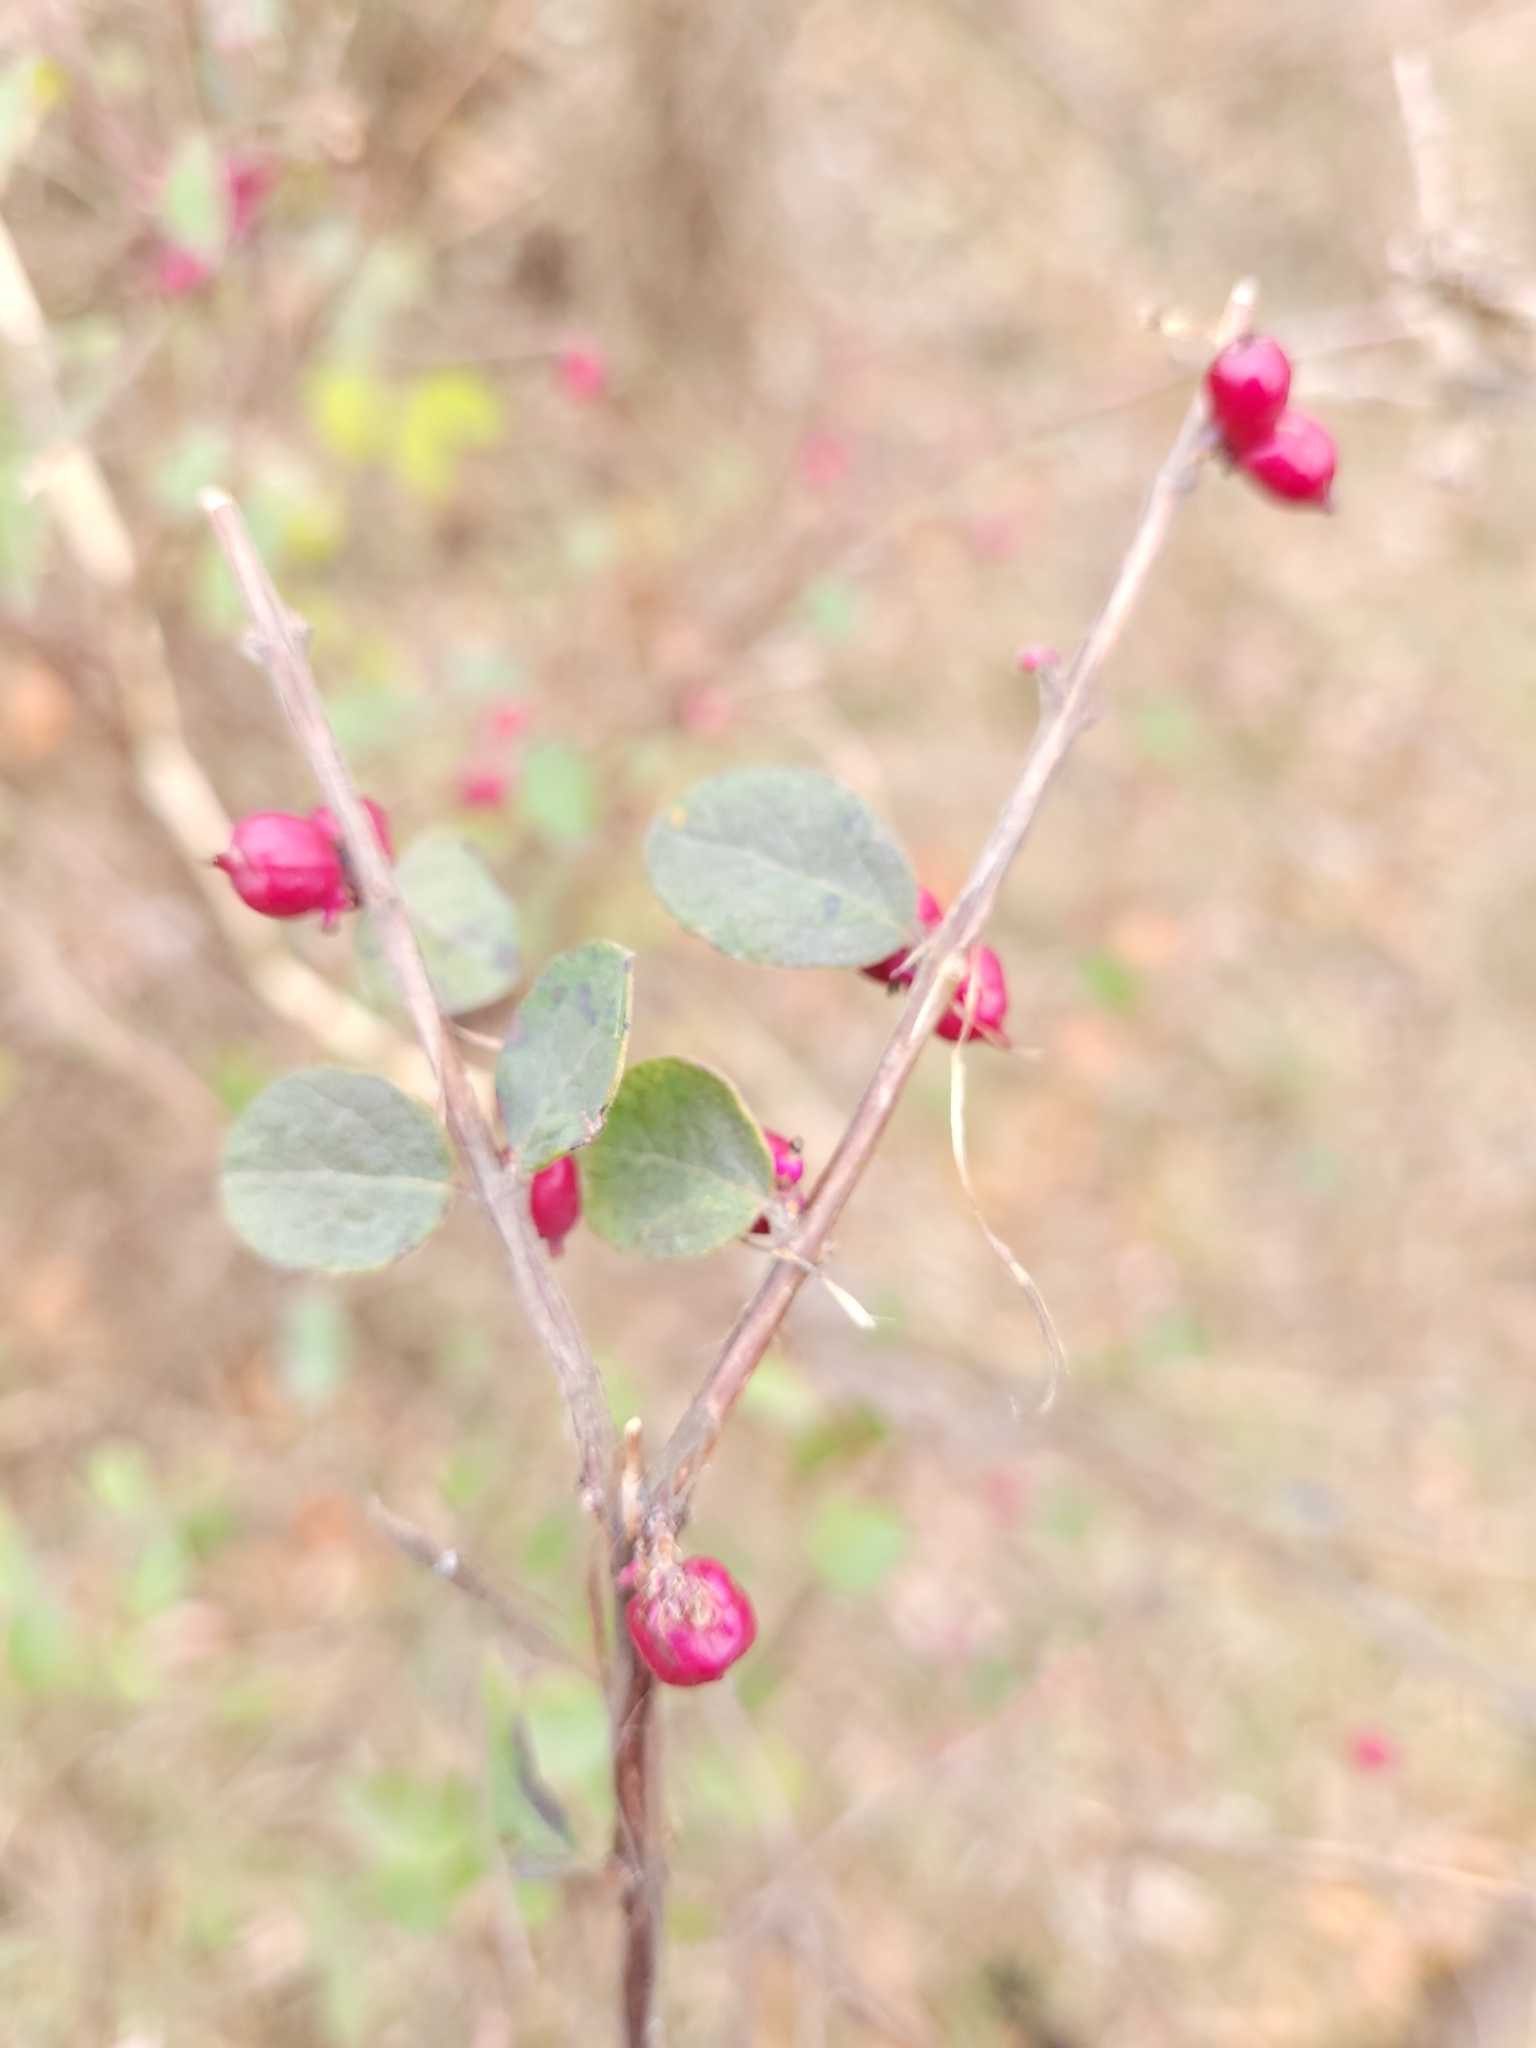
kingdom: Plantae
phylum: Tracheophyta
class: Magnoliopsida
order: Dipsacales
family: Caprifoliaceae
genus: Symphoricarpos
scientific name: Symphoricarpos orbiculatus
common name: Coralberry
